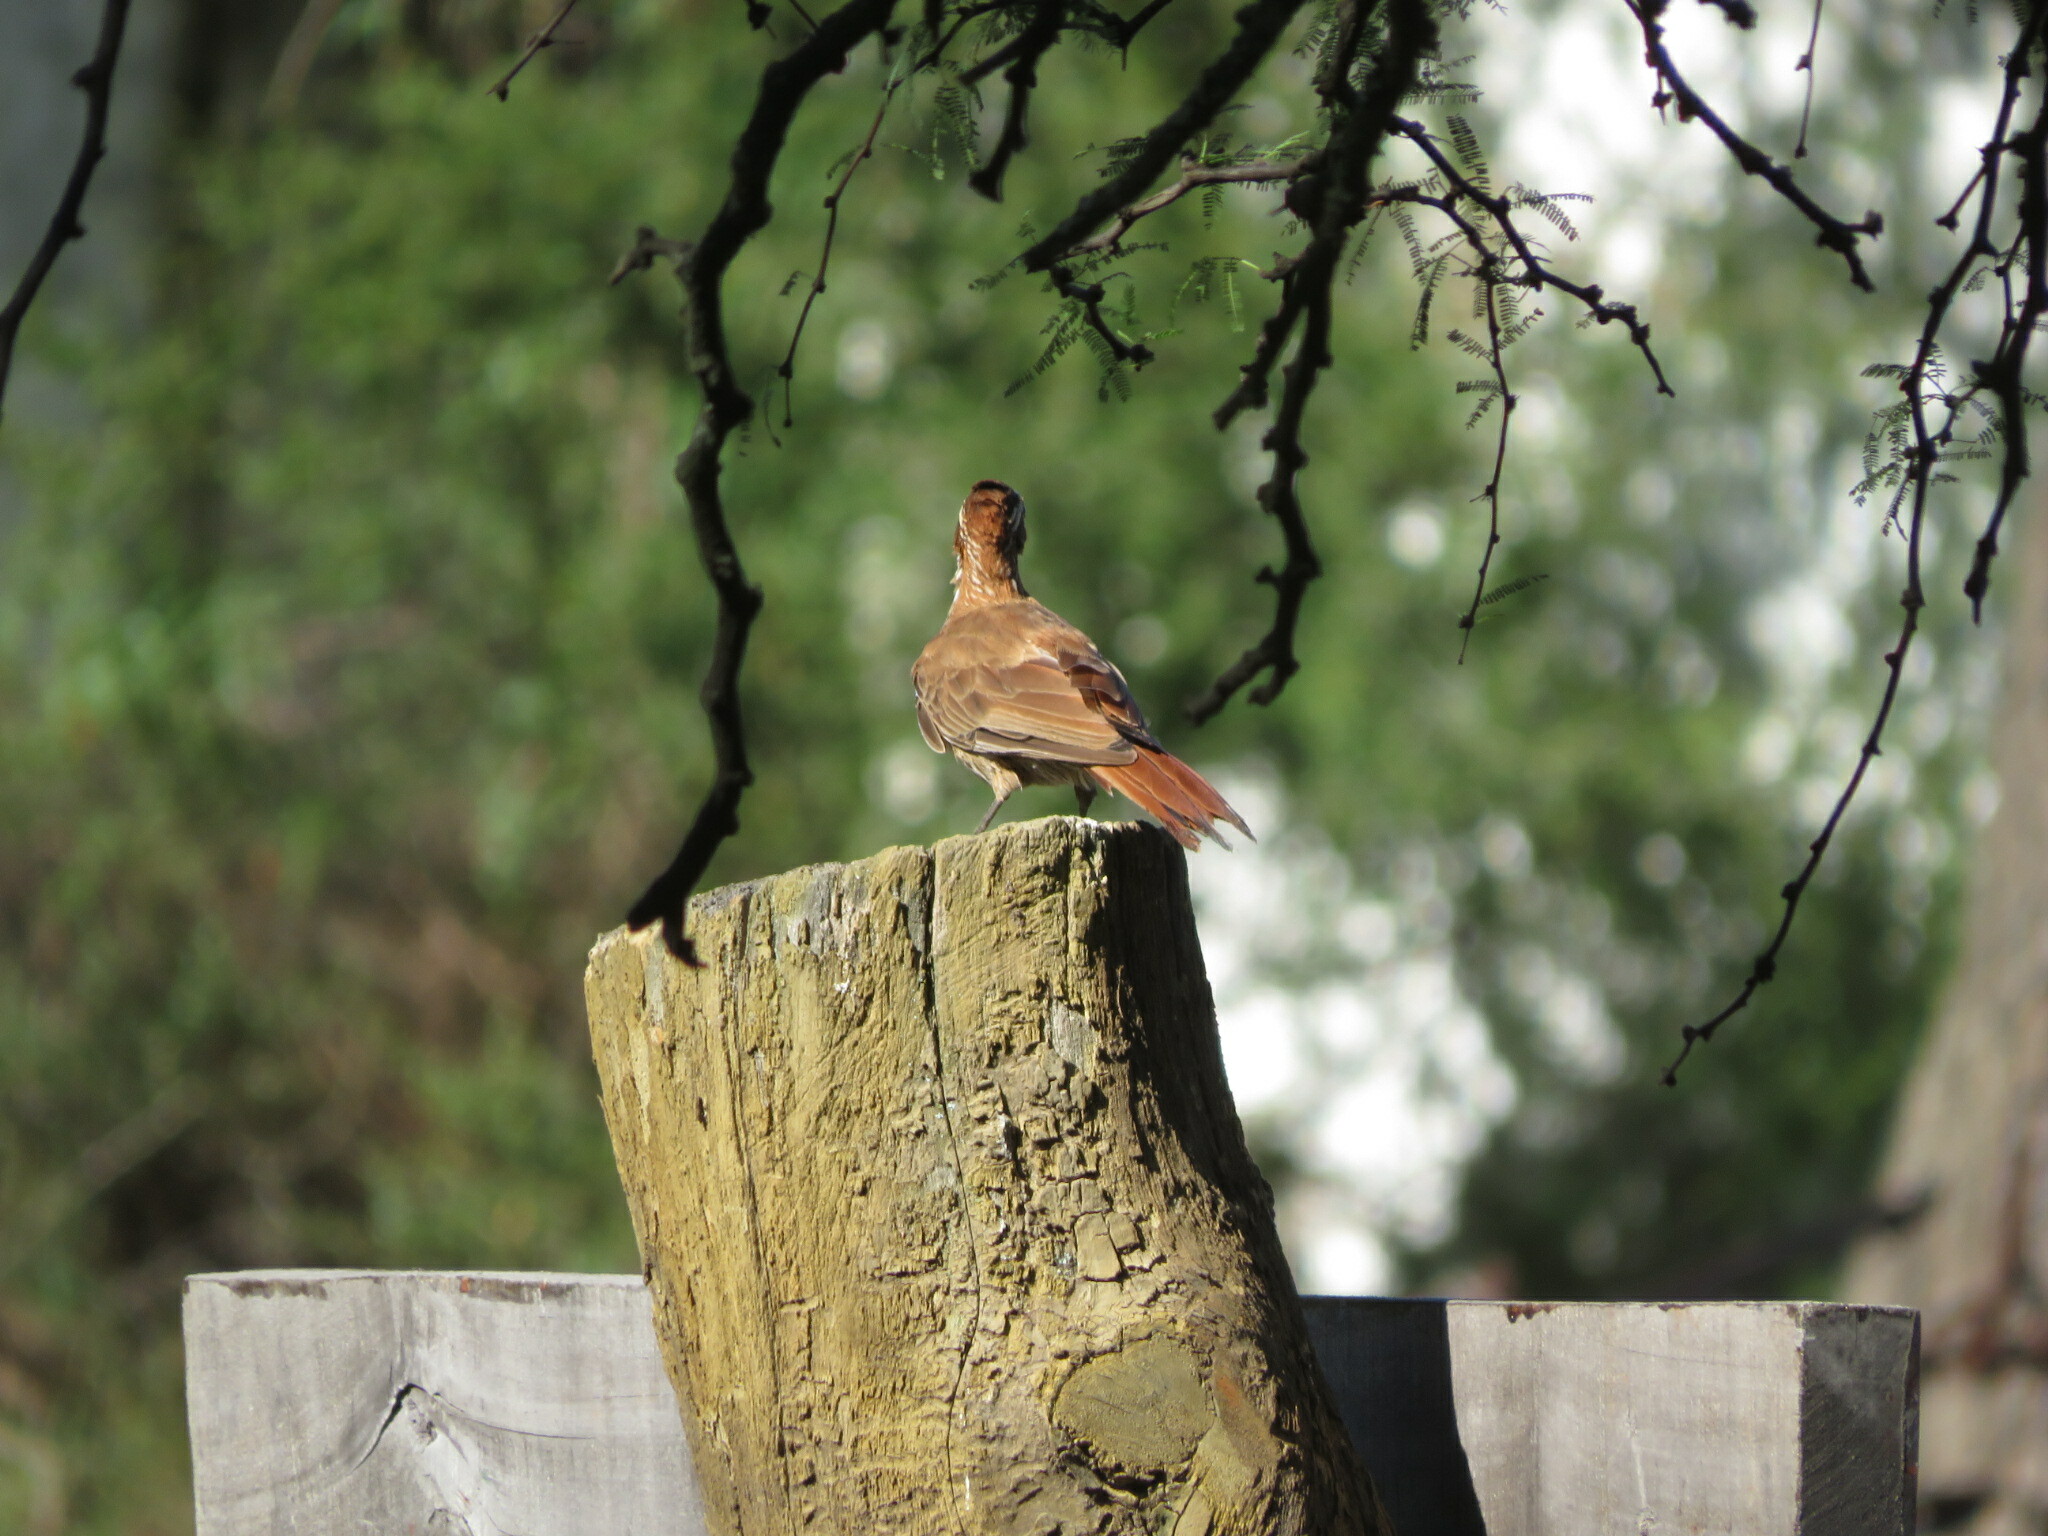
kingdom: Animalia
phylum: Chordata
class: Aves
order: Passeriformes
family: Furnariidae
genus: Drymornis
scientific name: Drymornis bridgesii
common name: Scimitar-billed woodcreeper
